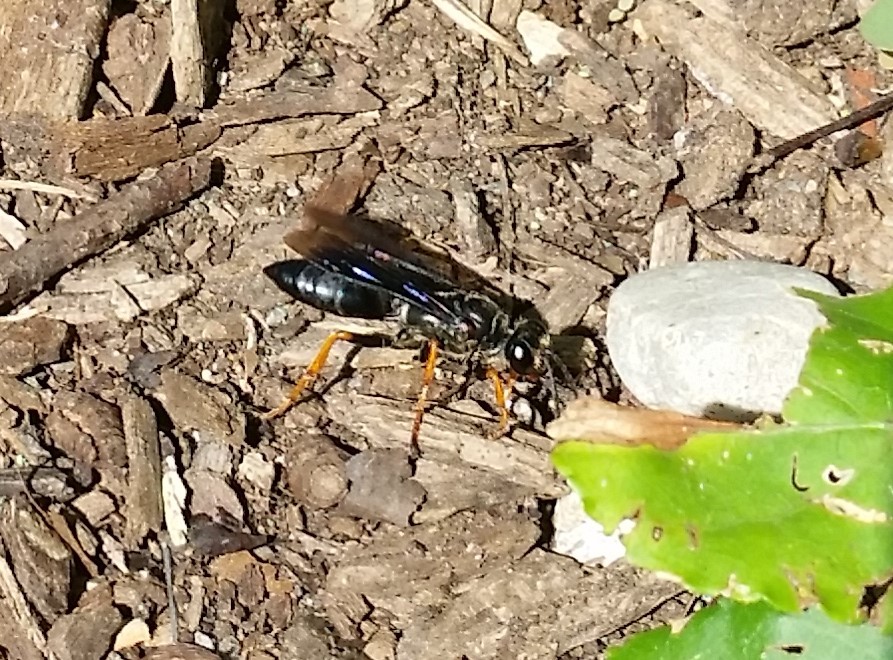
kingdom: Animalia
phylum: Arthropoda
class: Insecta
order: Hymenoptera
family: Sphecidae
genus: Sphex
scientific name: Sphex nudus
